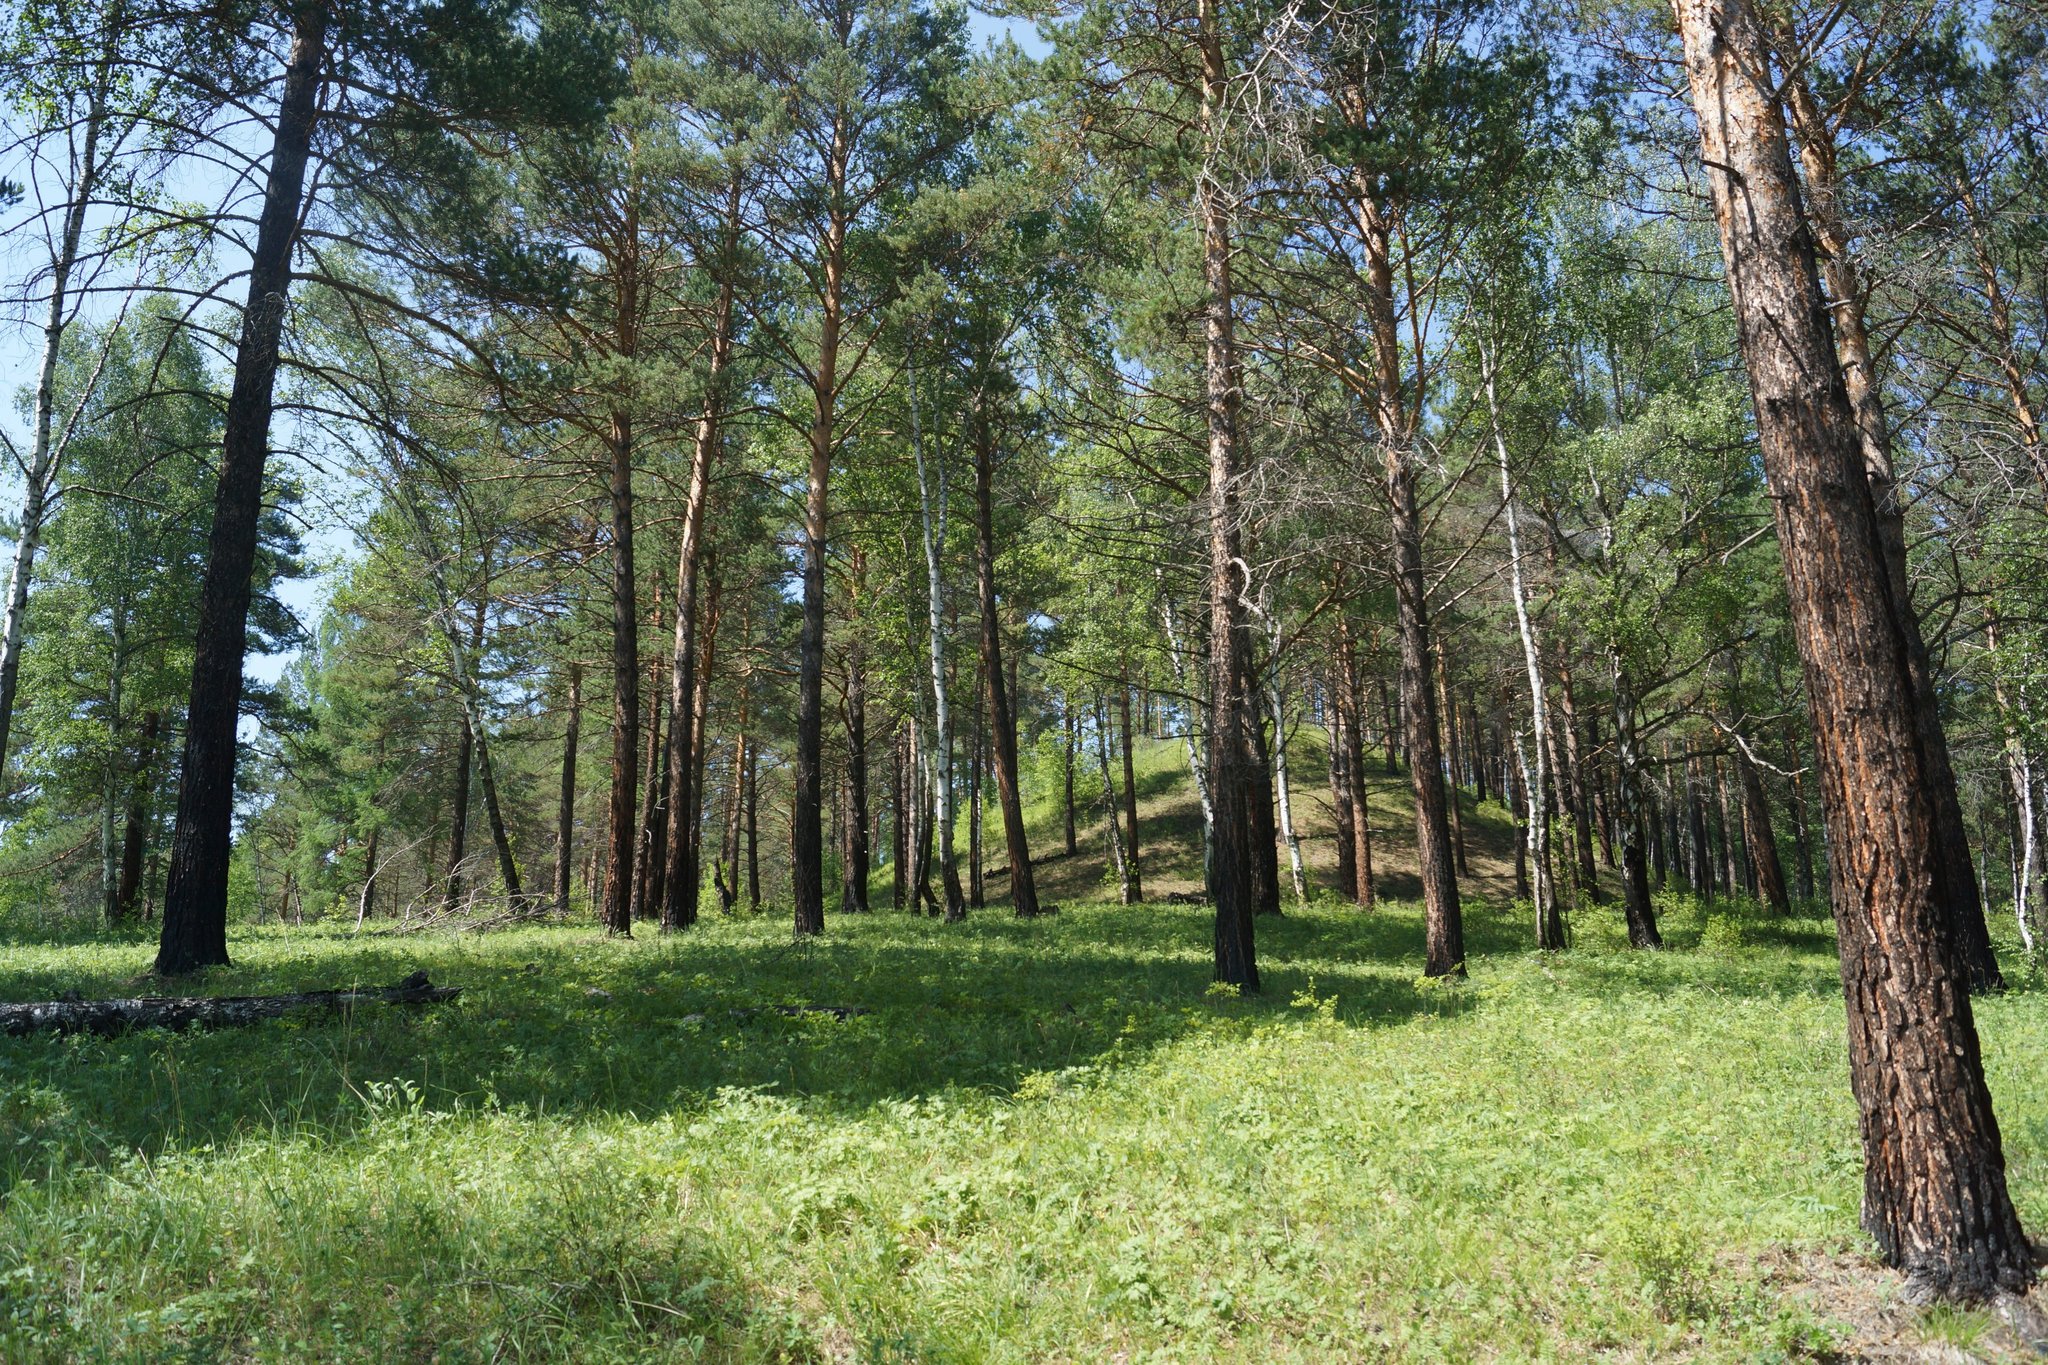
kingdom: Plantae
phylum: Tracheophyta
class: Pinopsida
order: Pinales
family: Pinaceae
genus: Pinus
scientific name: Pinus sylvestris
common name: Scots pine
